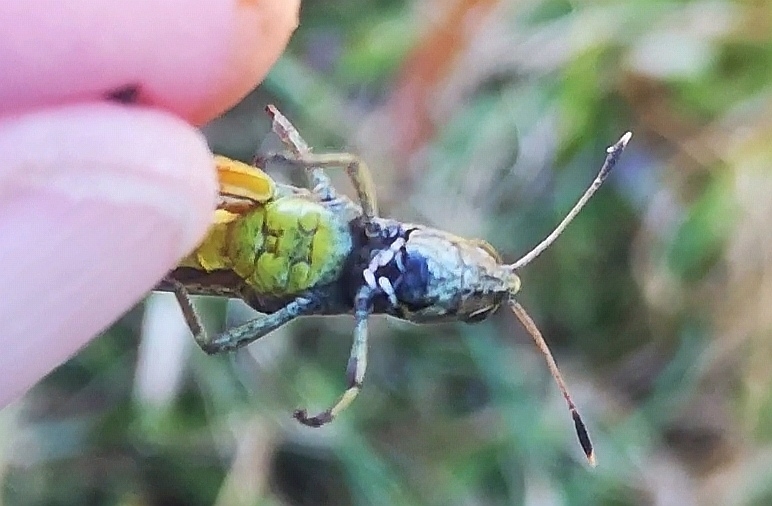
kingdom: Animalia
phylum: Arthropoda
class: Insecta
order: Orthoptera
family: Acrididae
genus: Gomphocerippus
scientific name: Gomphocerippus rufus
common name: Rufous grasshopper
